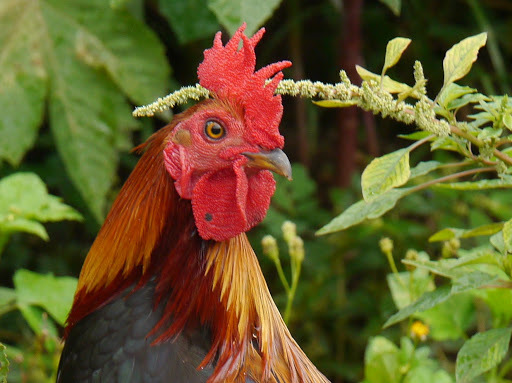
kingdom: Animalia
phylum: Chordata
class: Aves
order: Galliformes
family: Phasianidae
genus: Gallus
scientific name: Gallus gallus
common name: Red junglefowl
